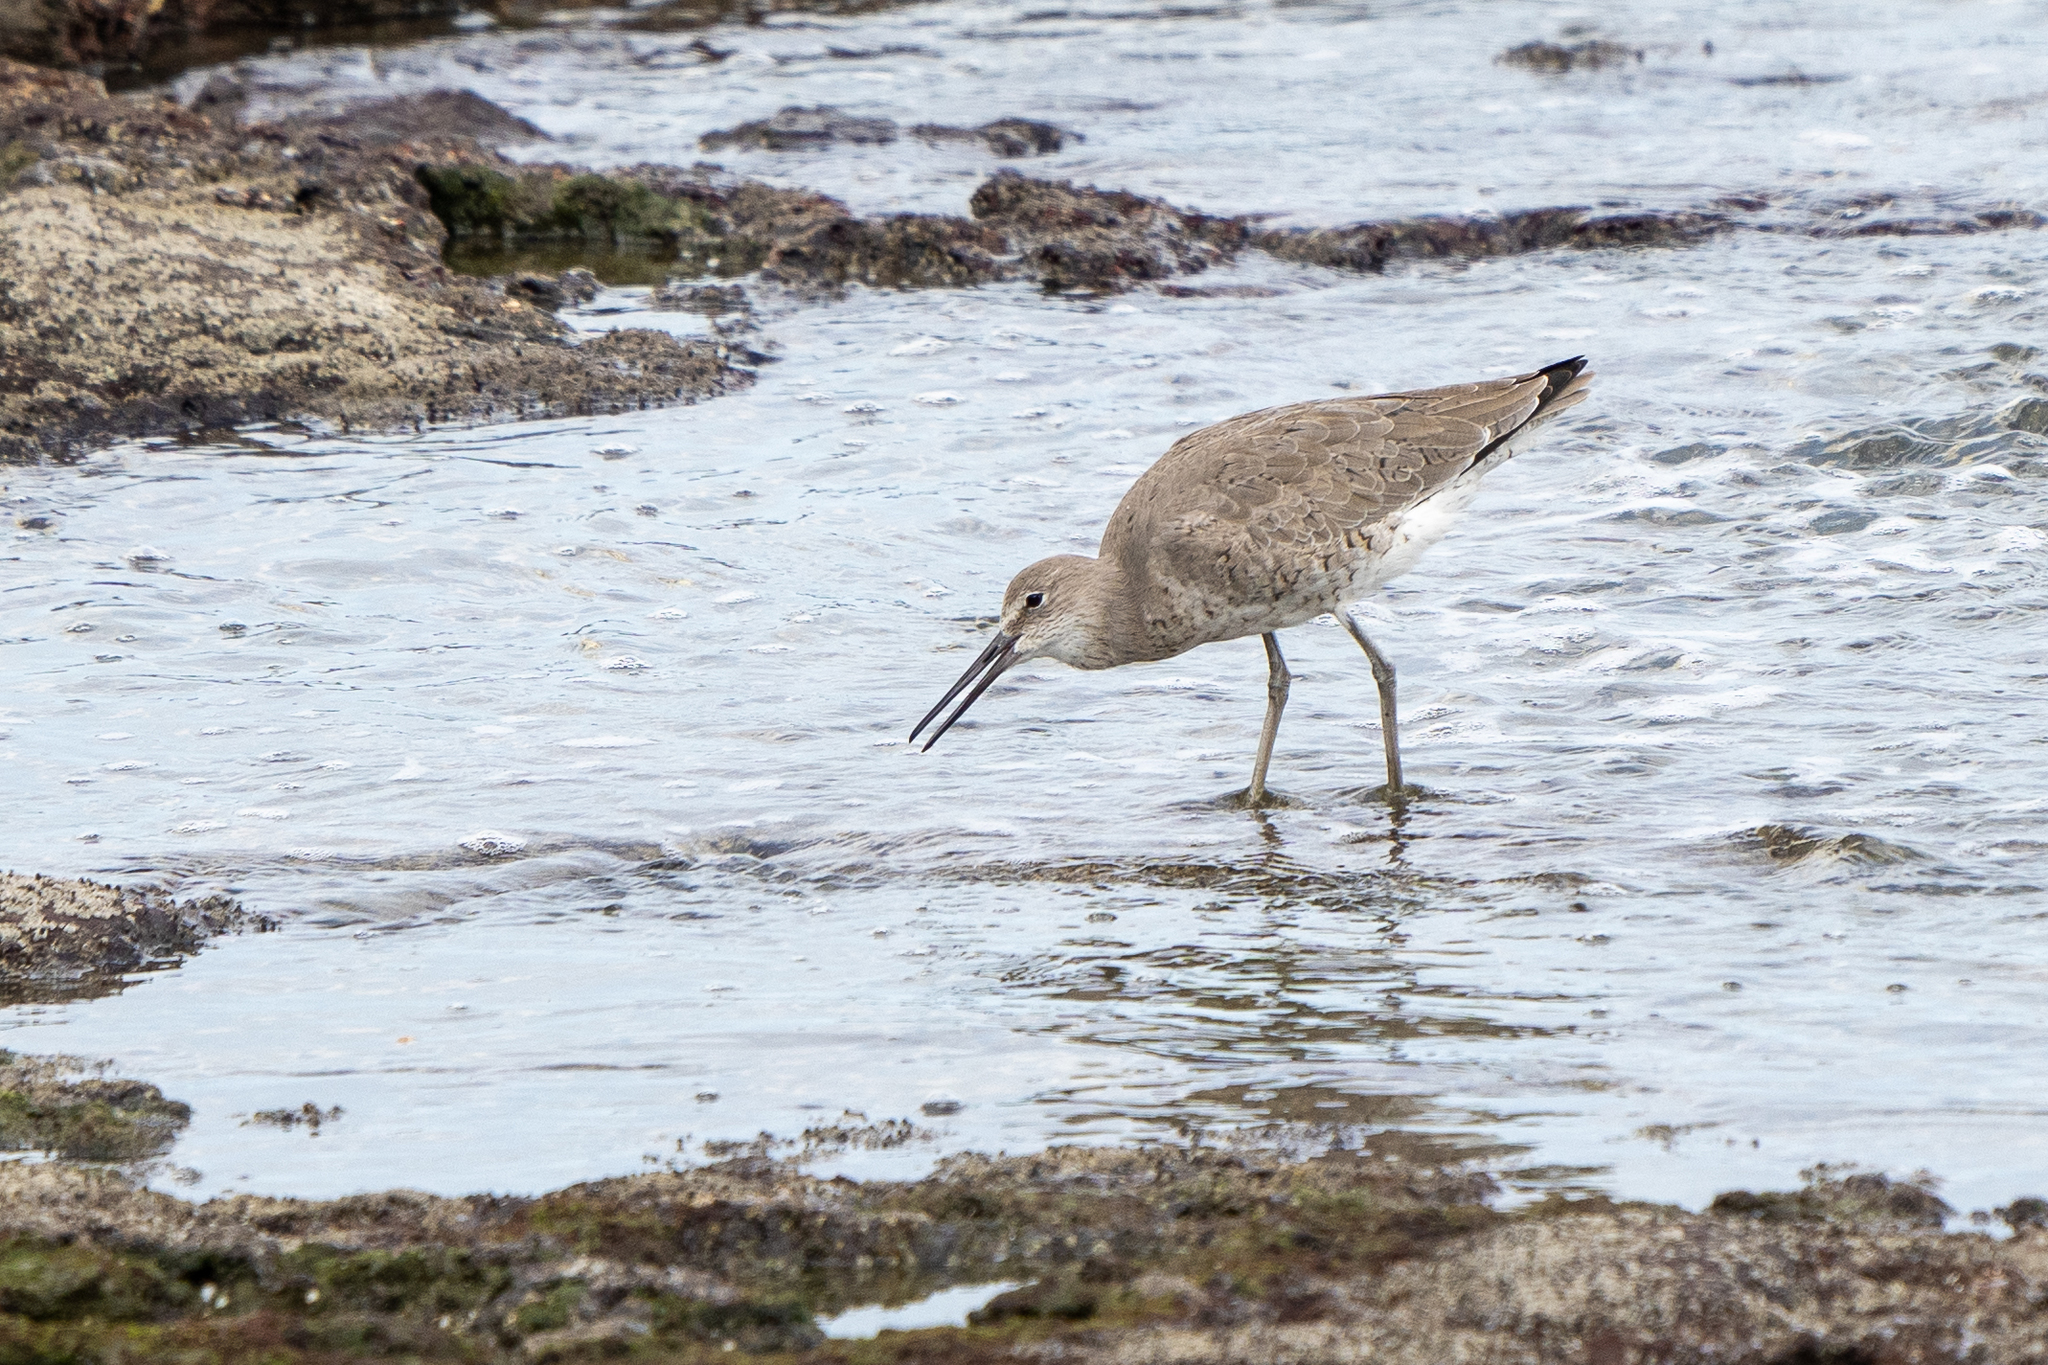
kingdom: Animalia
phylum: Chordata
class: Aves
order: Charadriiformes
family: Scolopacidae
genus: Tringa
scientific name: Tringa semipalmata
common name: Willet
